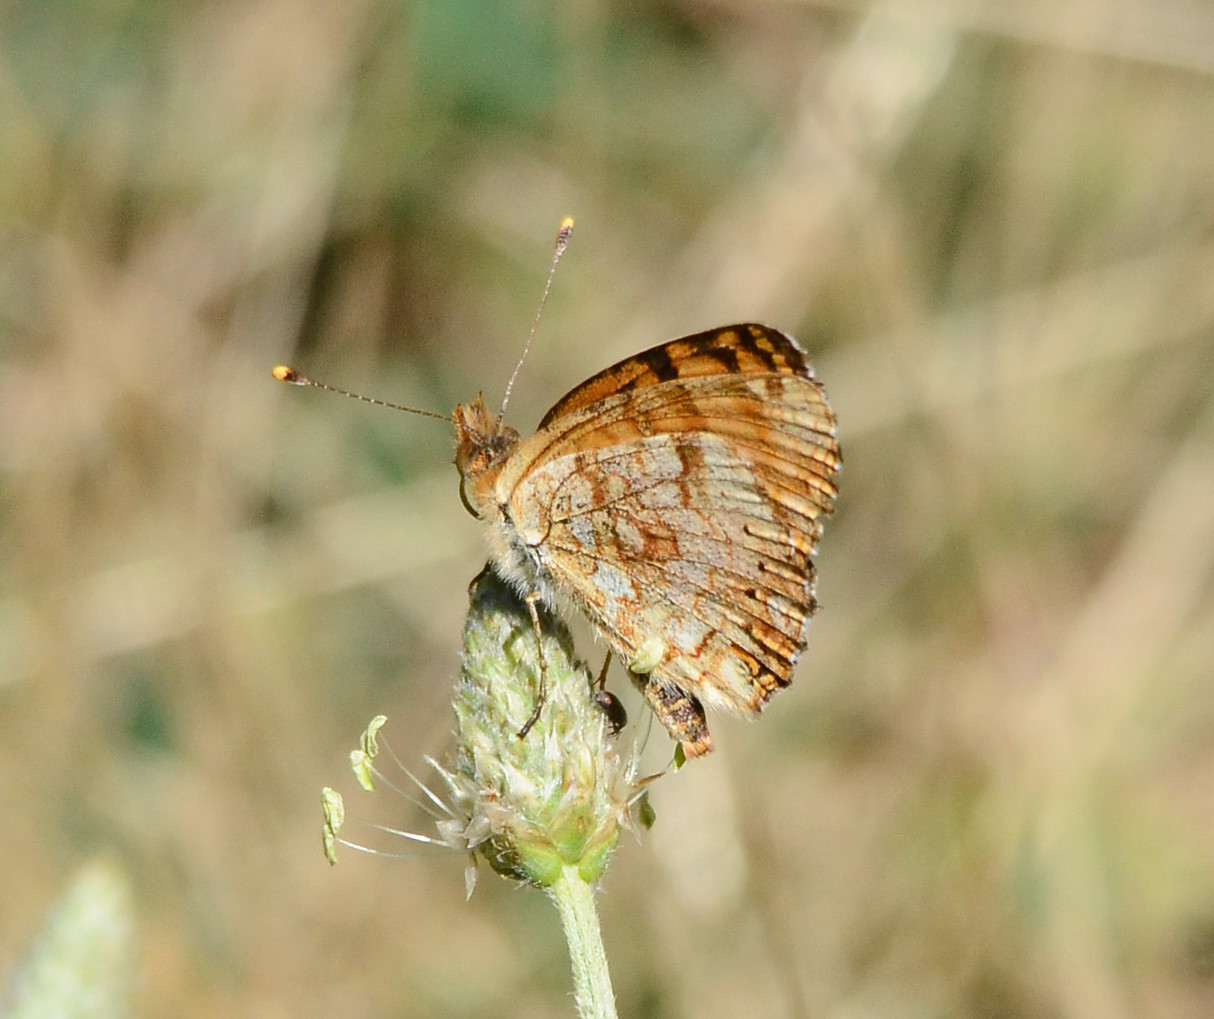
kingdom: Animalia
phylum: Arthropoda
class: Insecta
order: Lepidoptera
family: Nymphalidae
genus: Eresia
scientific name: Eresia aveyrona
